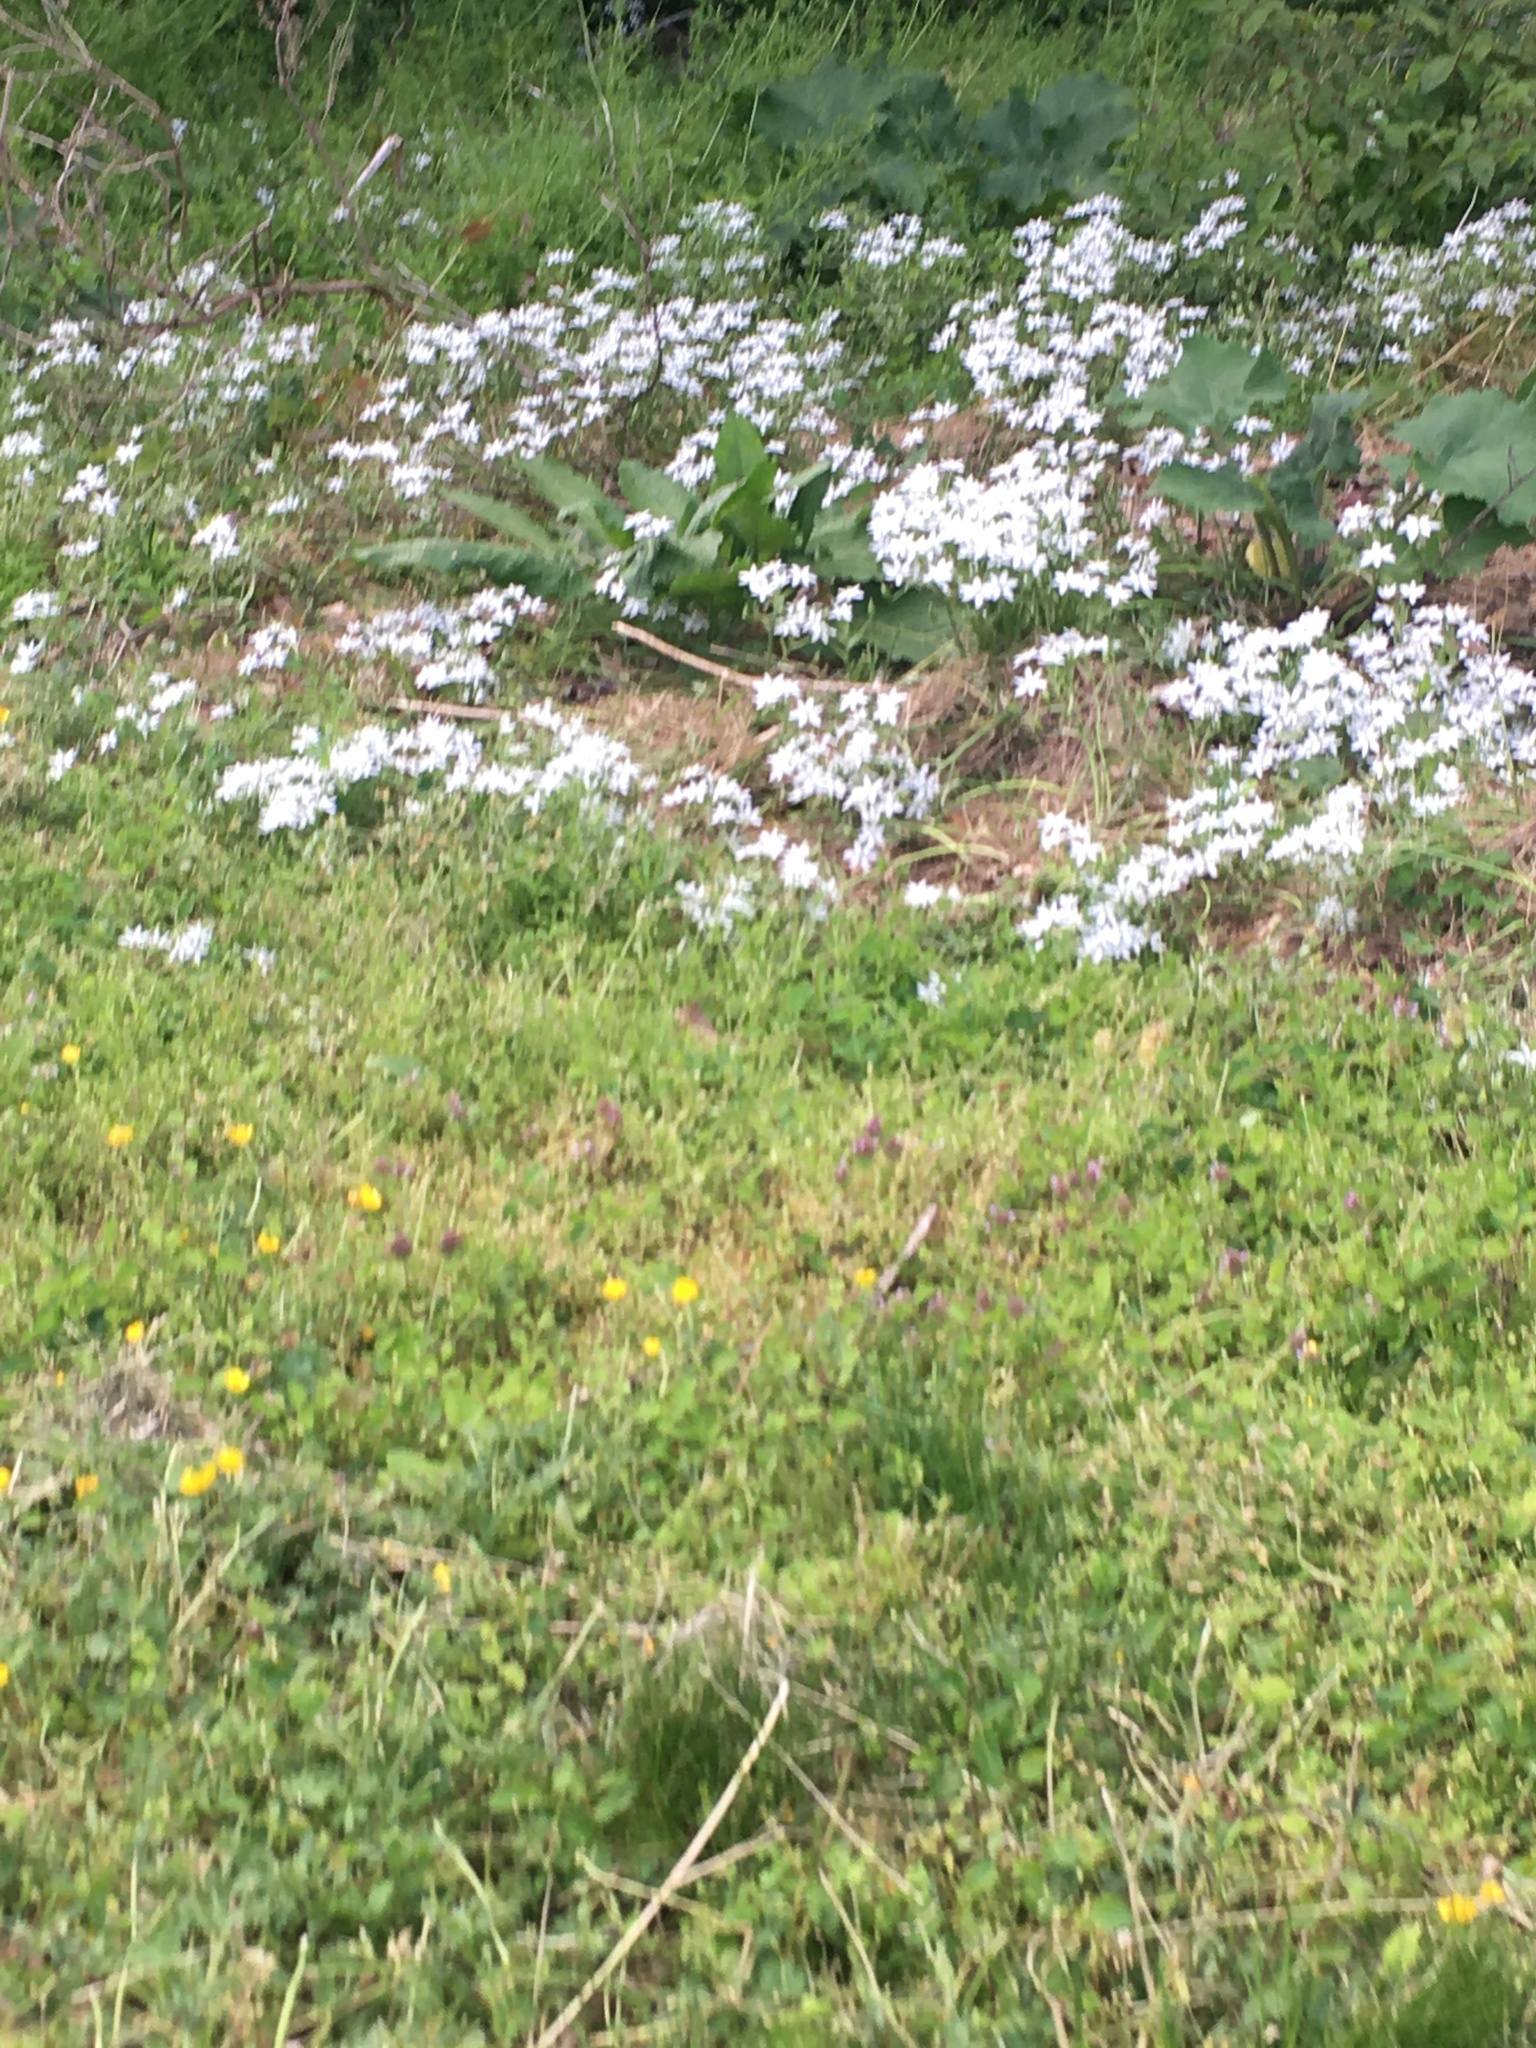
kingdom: Plantae
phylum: Tracheophyta
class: Liliopsida
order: Asparagales
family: Asparagaceae
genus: Ornithogalum
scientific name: Ornithogalum umbellatum
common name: Garden star-of-bethlehem
